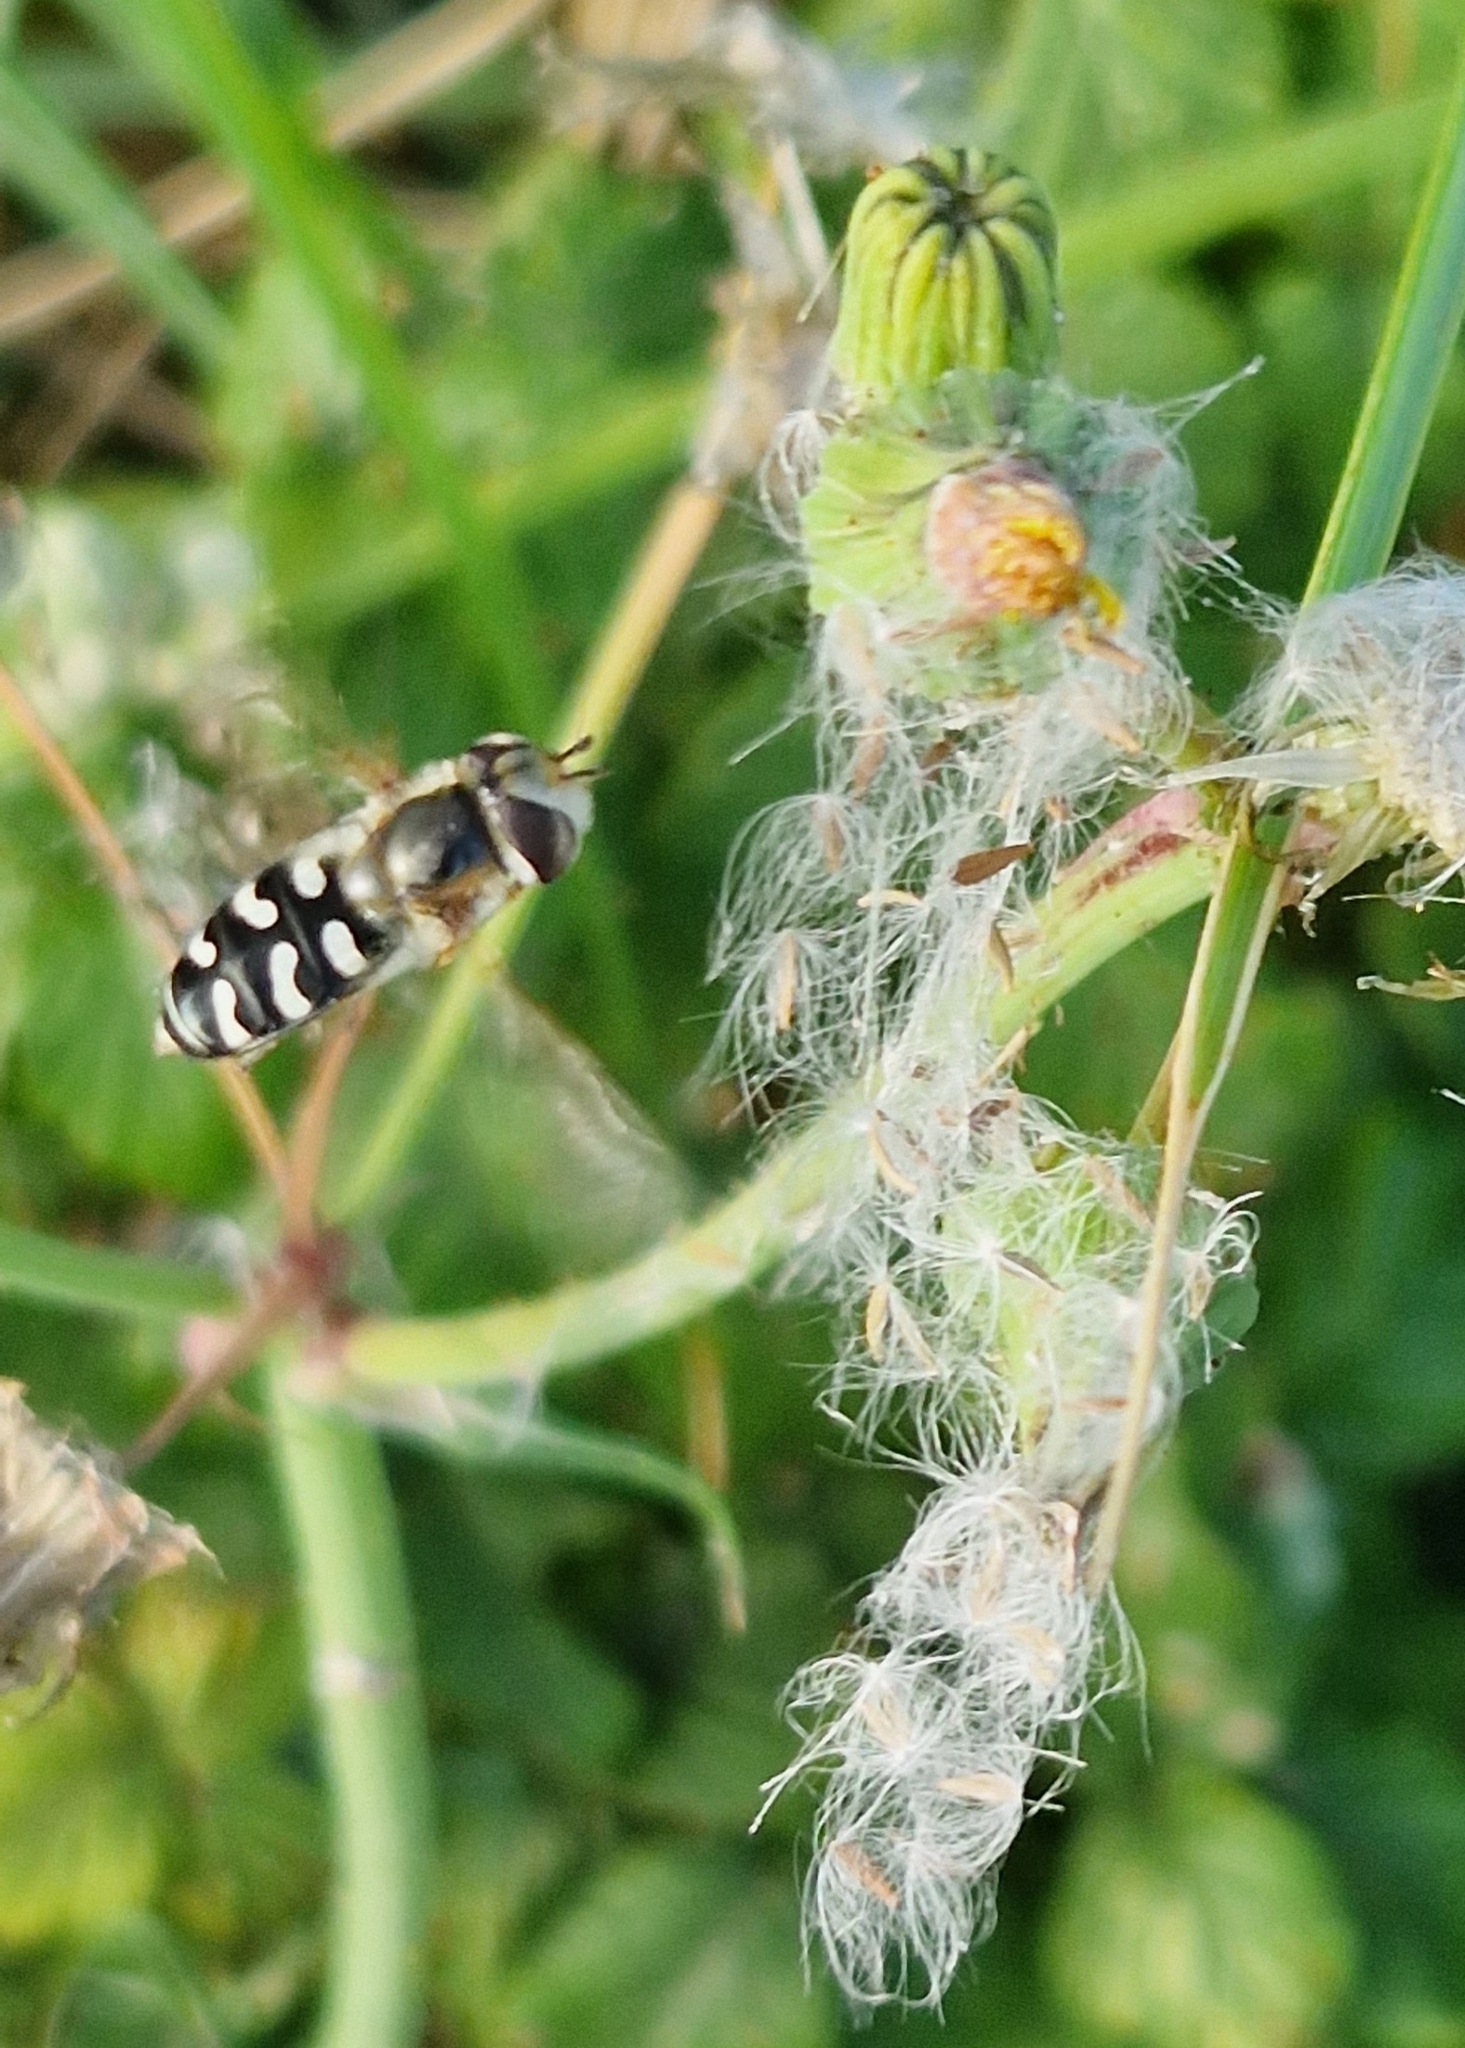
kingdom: Animalia
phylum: Arthropoda
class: Insecta
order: Diptera
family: Syrphidae
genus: Scaeva
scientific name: Scaeva pyrastri
